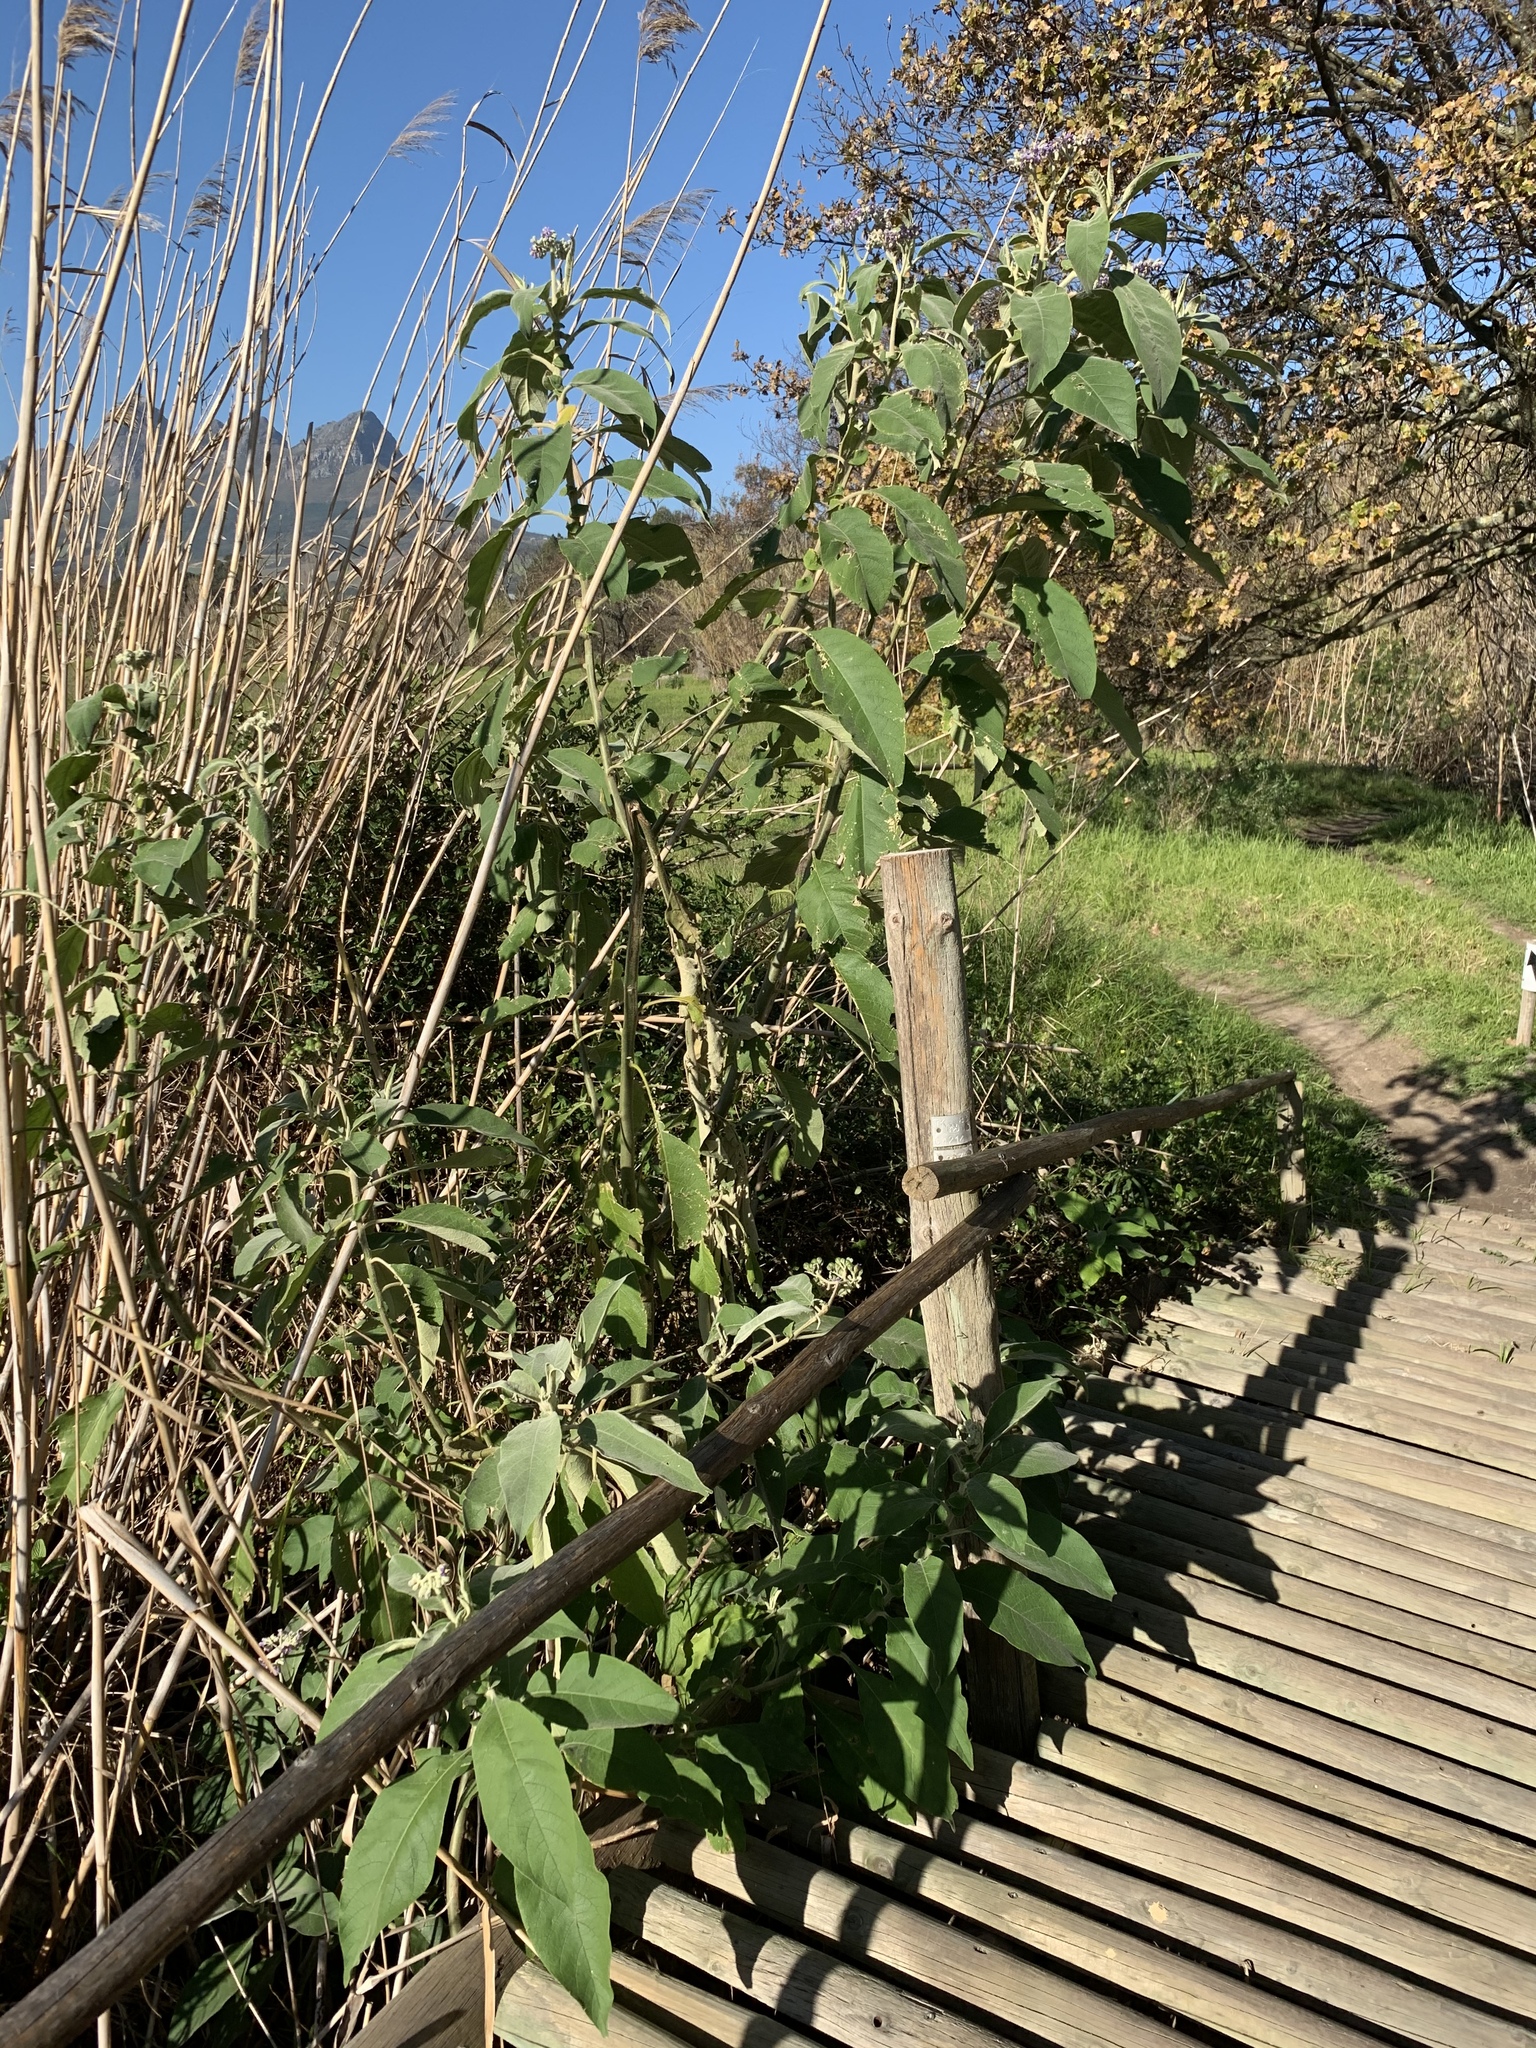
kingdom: Plantae
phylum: Tracheophyta
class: Magnoliopsida
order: Solanales
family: Solanaceae
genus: Solanum
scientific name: Solanum mauritianum
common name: Earleaf nightshade
